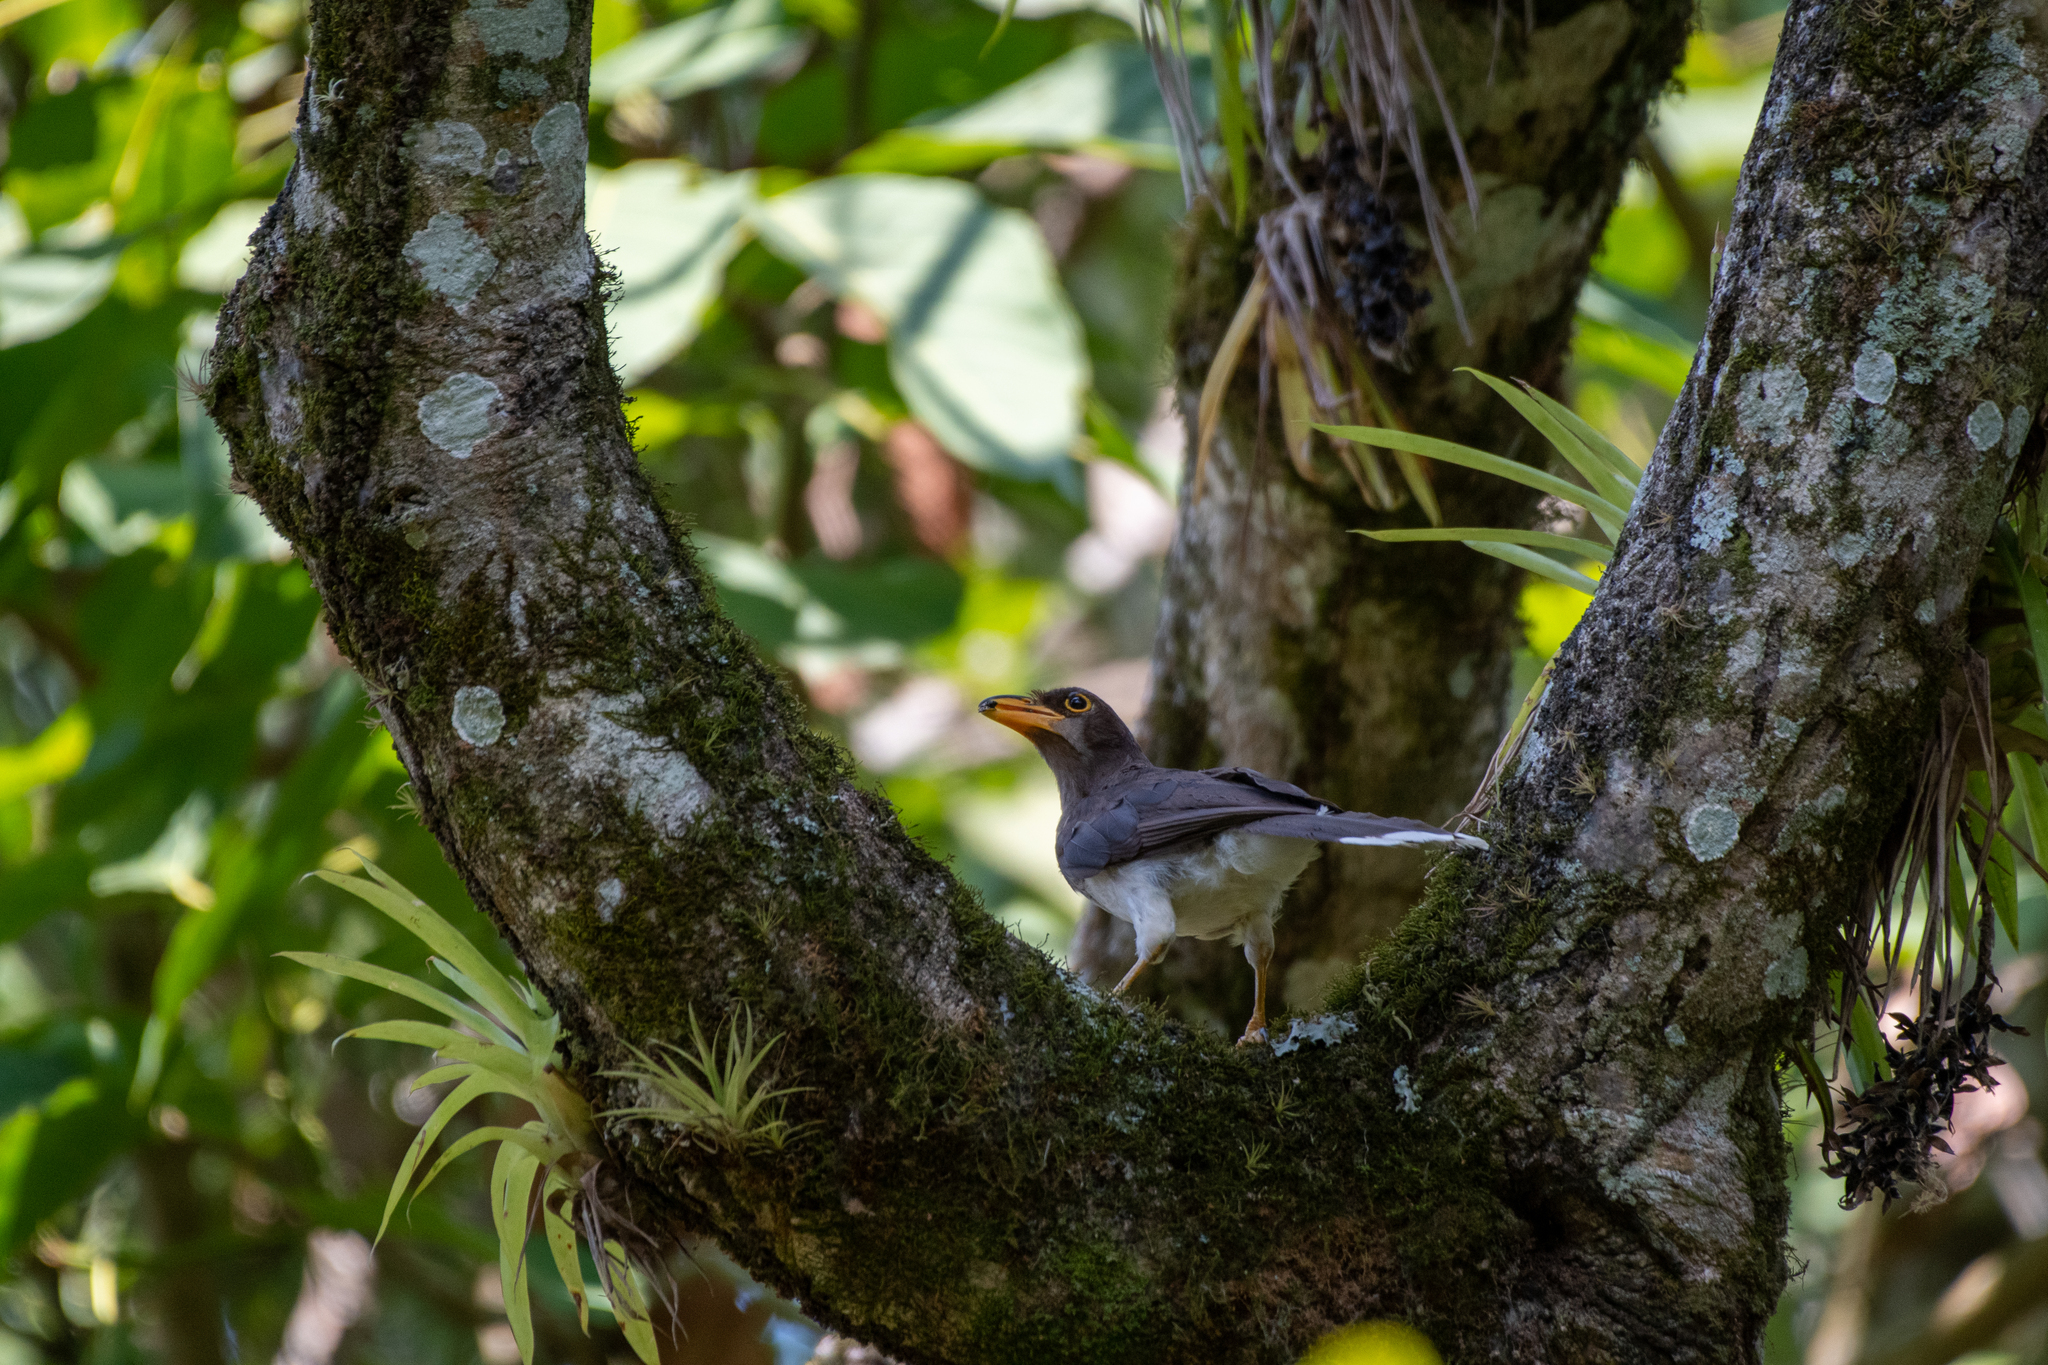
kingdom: Animalia
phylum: Chordata
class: Aves
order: Passeriformes
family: Corvidae
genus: Psilorhinus
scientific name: Psilorhinus morio
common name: Brown jay
